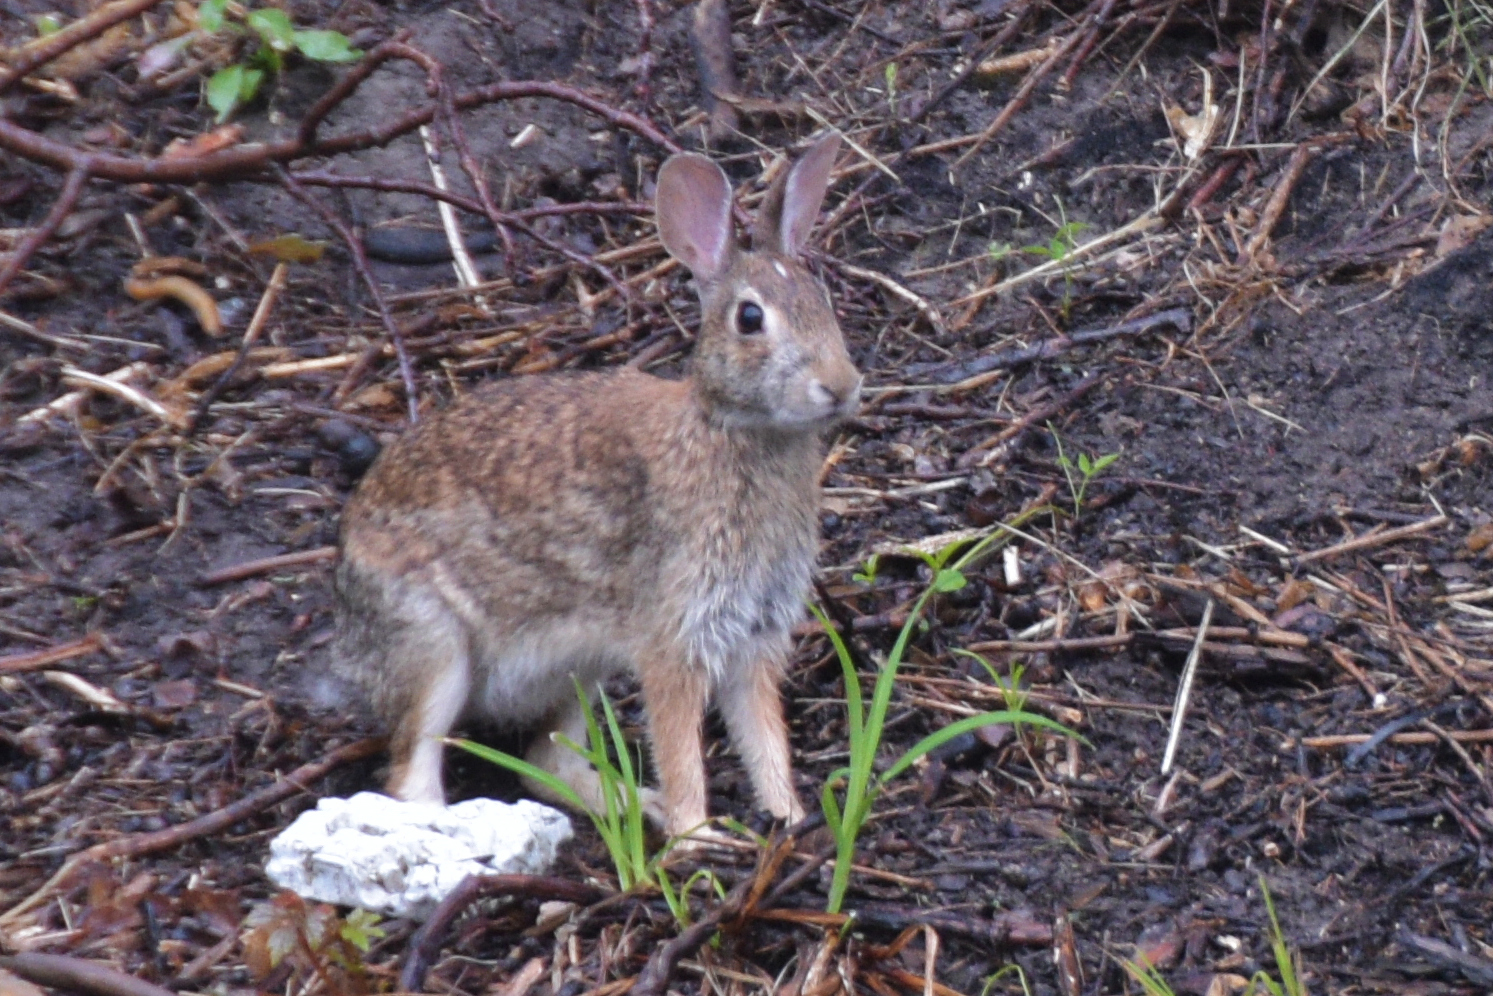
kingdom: Animalia
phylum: Chordata
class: Mammalia
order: Lagomorpha
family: Leporidae
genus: Sylvilagus
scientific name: Sylvilagus floridanus
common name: Eastern cottontail
